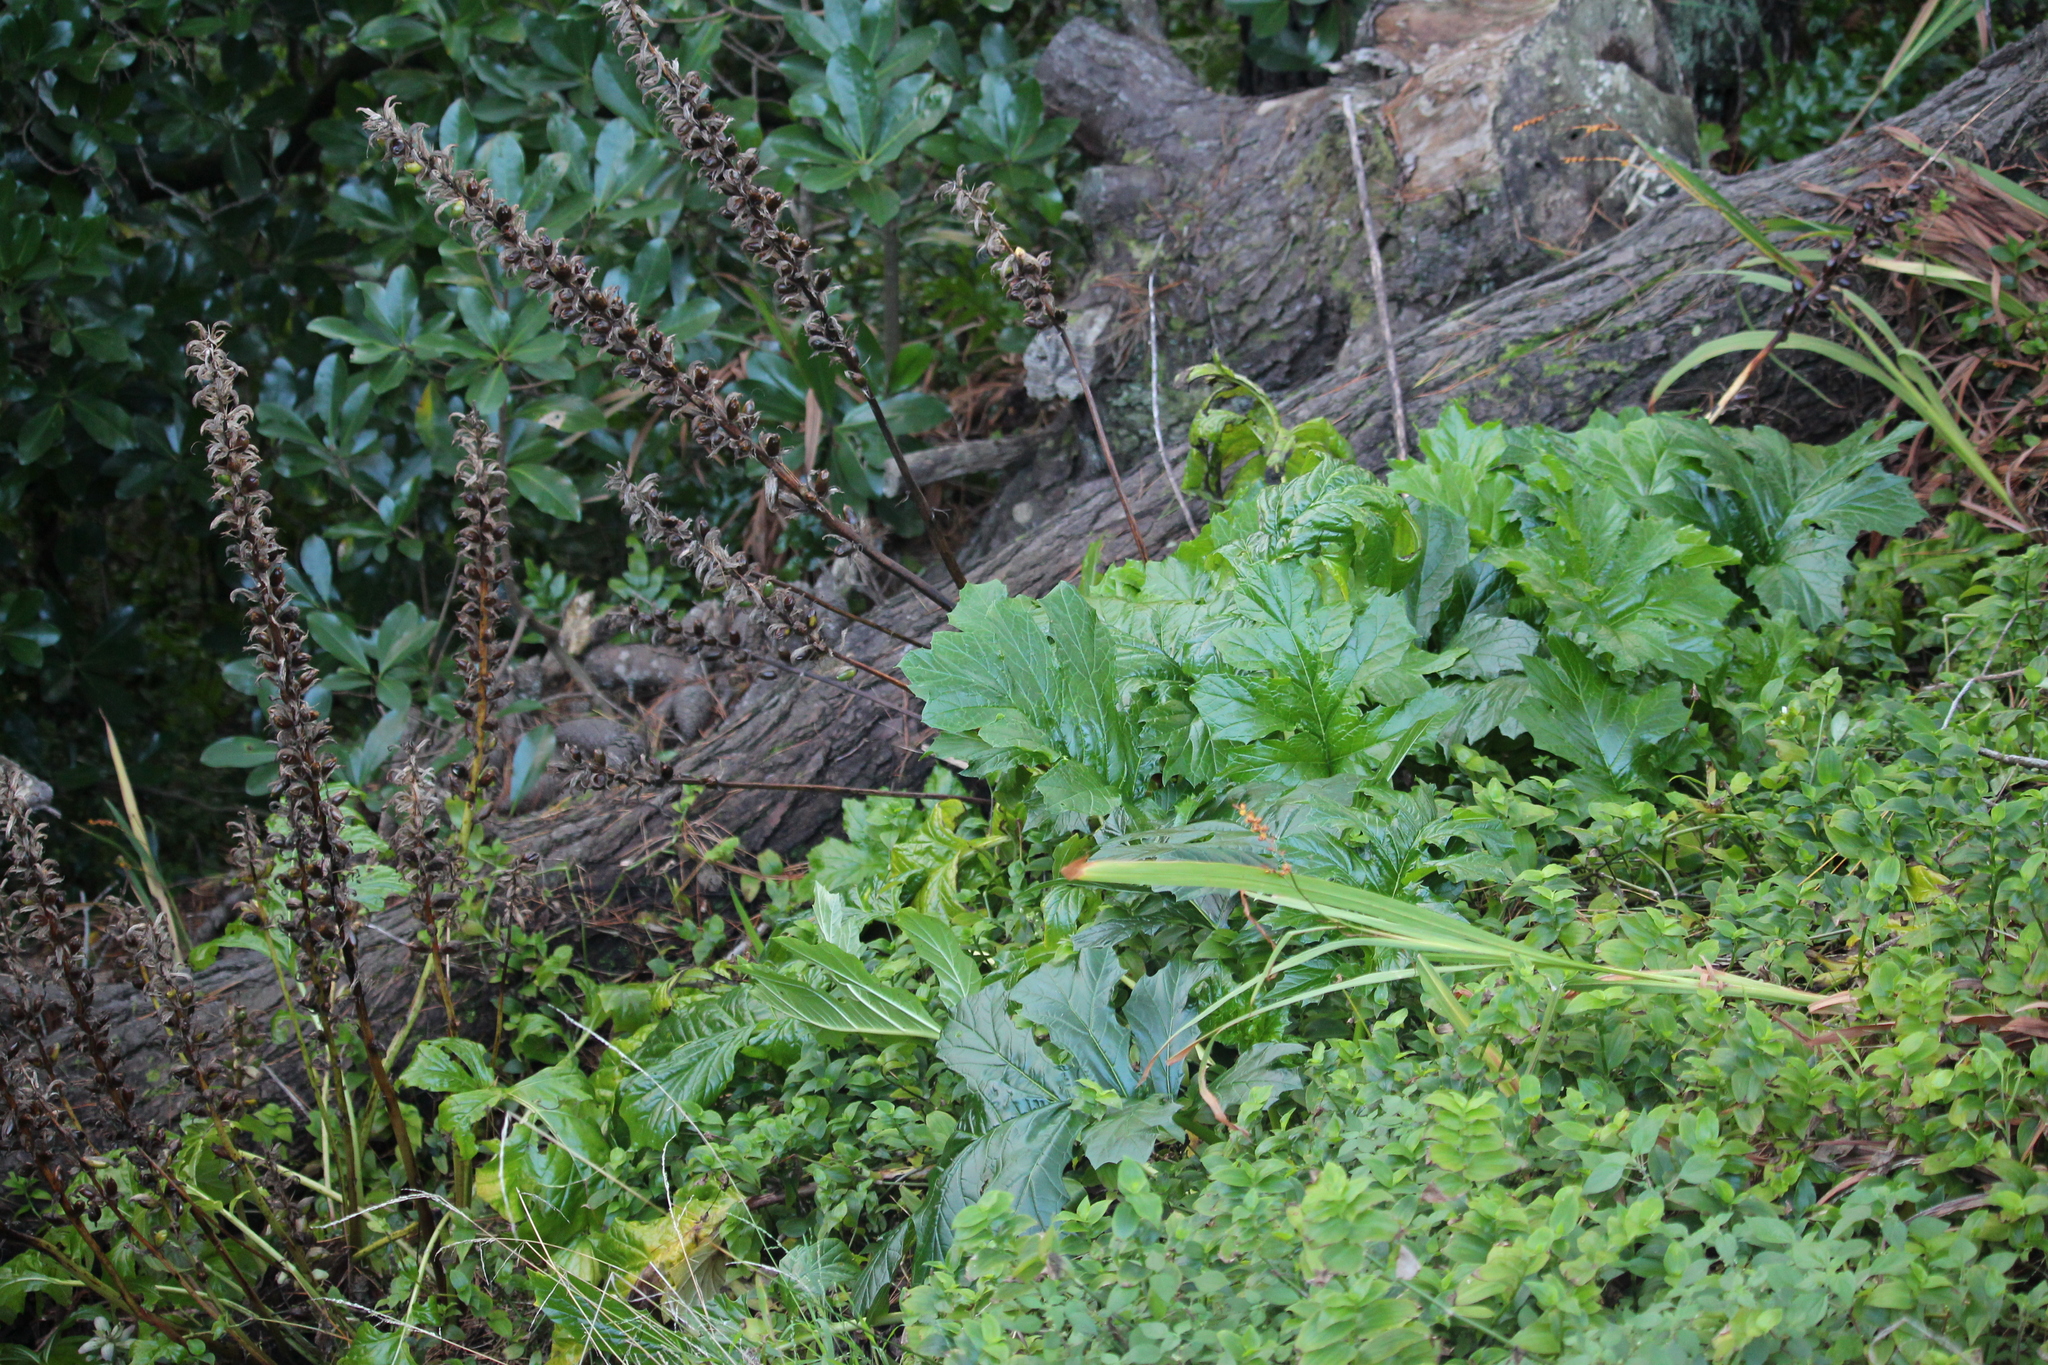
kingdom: Plantae
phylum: Tracheophyta
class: Magnoliopsida
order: Lamiales
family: Acanthaceae
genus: Acanthus
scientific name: Acanthus mollis
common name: Bear's-breech
